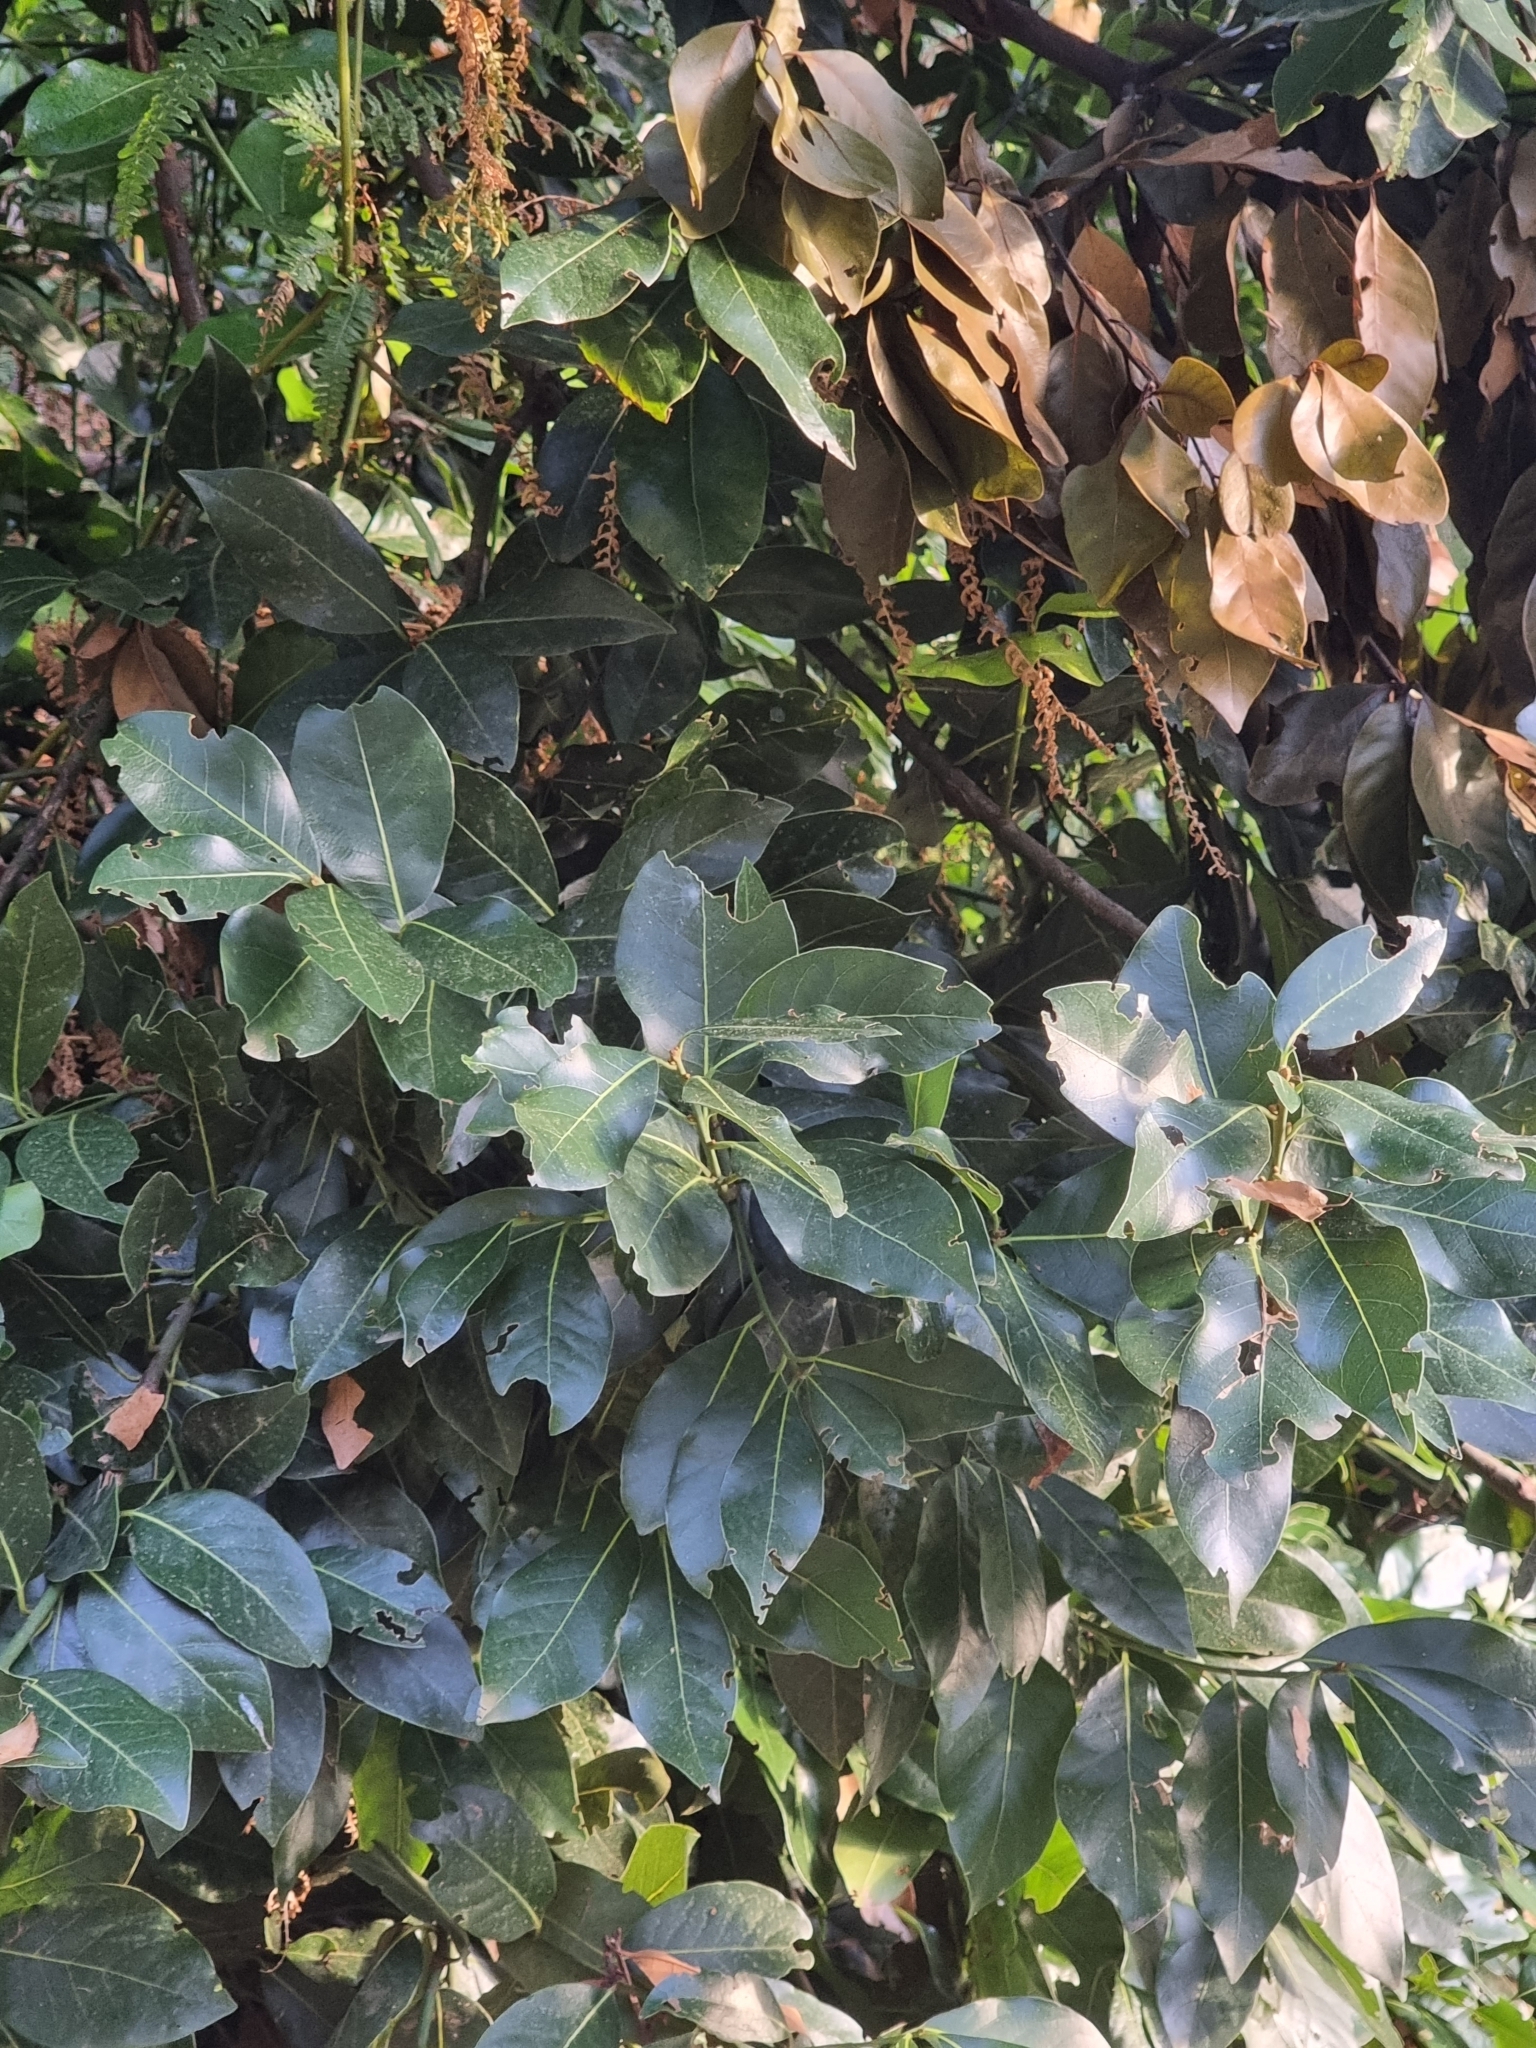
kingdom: Plantae
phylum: Tracheophyta
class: Magnoliopsida
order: Laurales
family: Lauraceae
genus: Laurus
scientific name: Laurus novocanariensis
